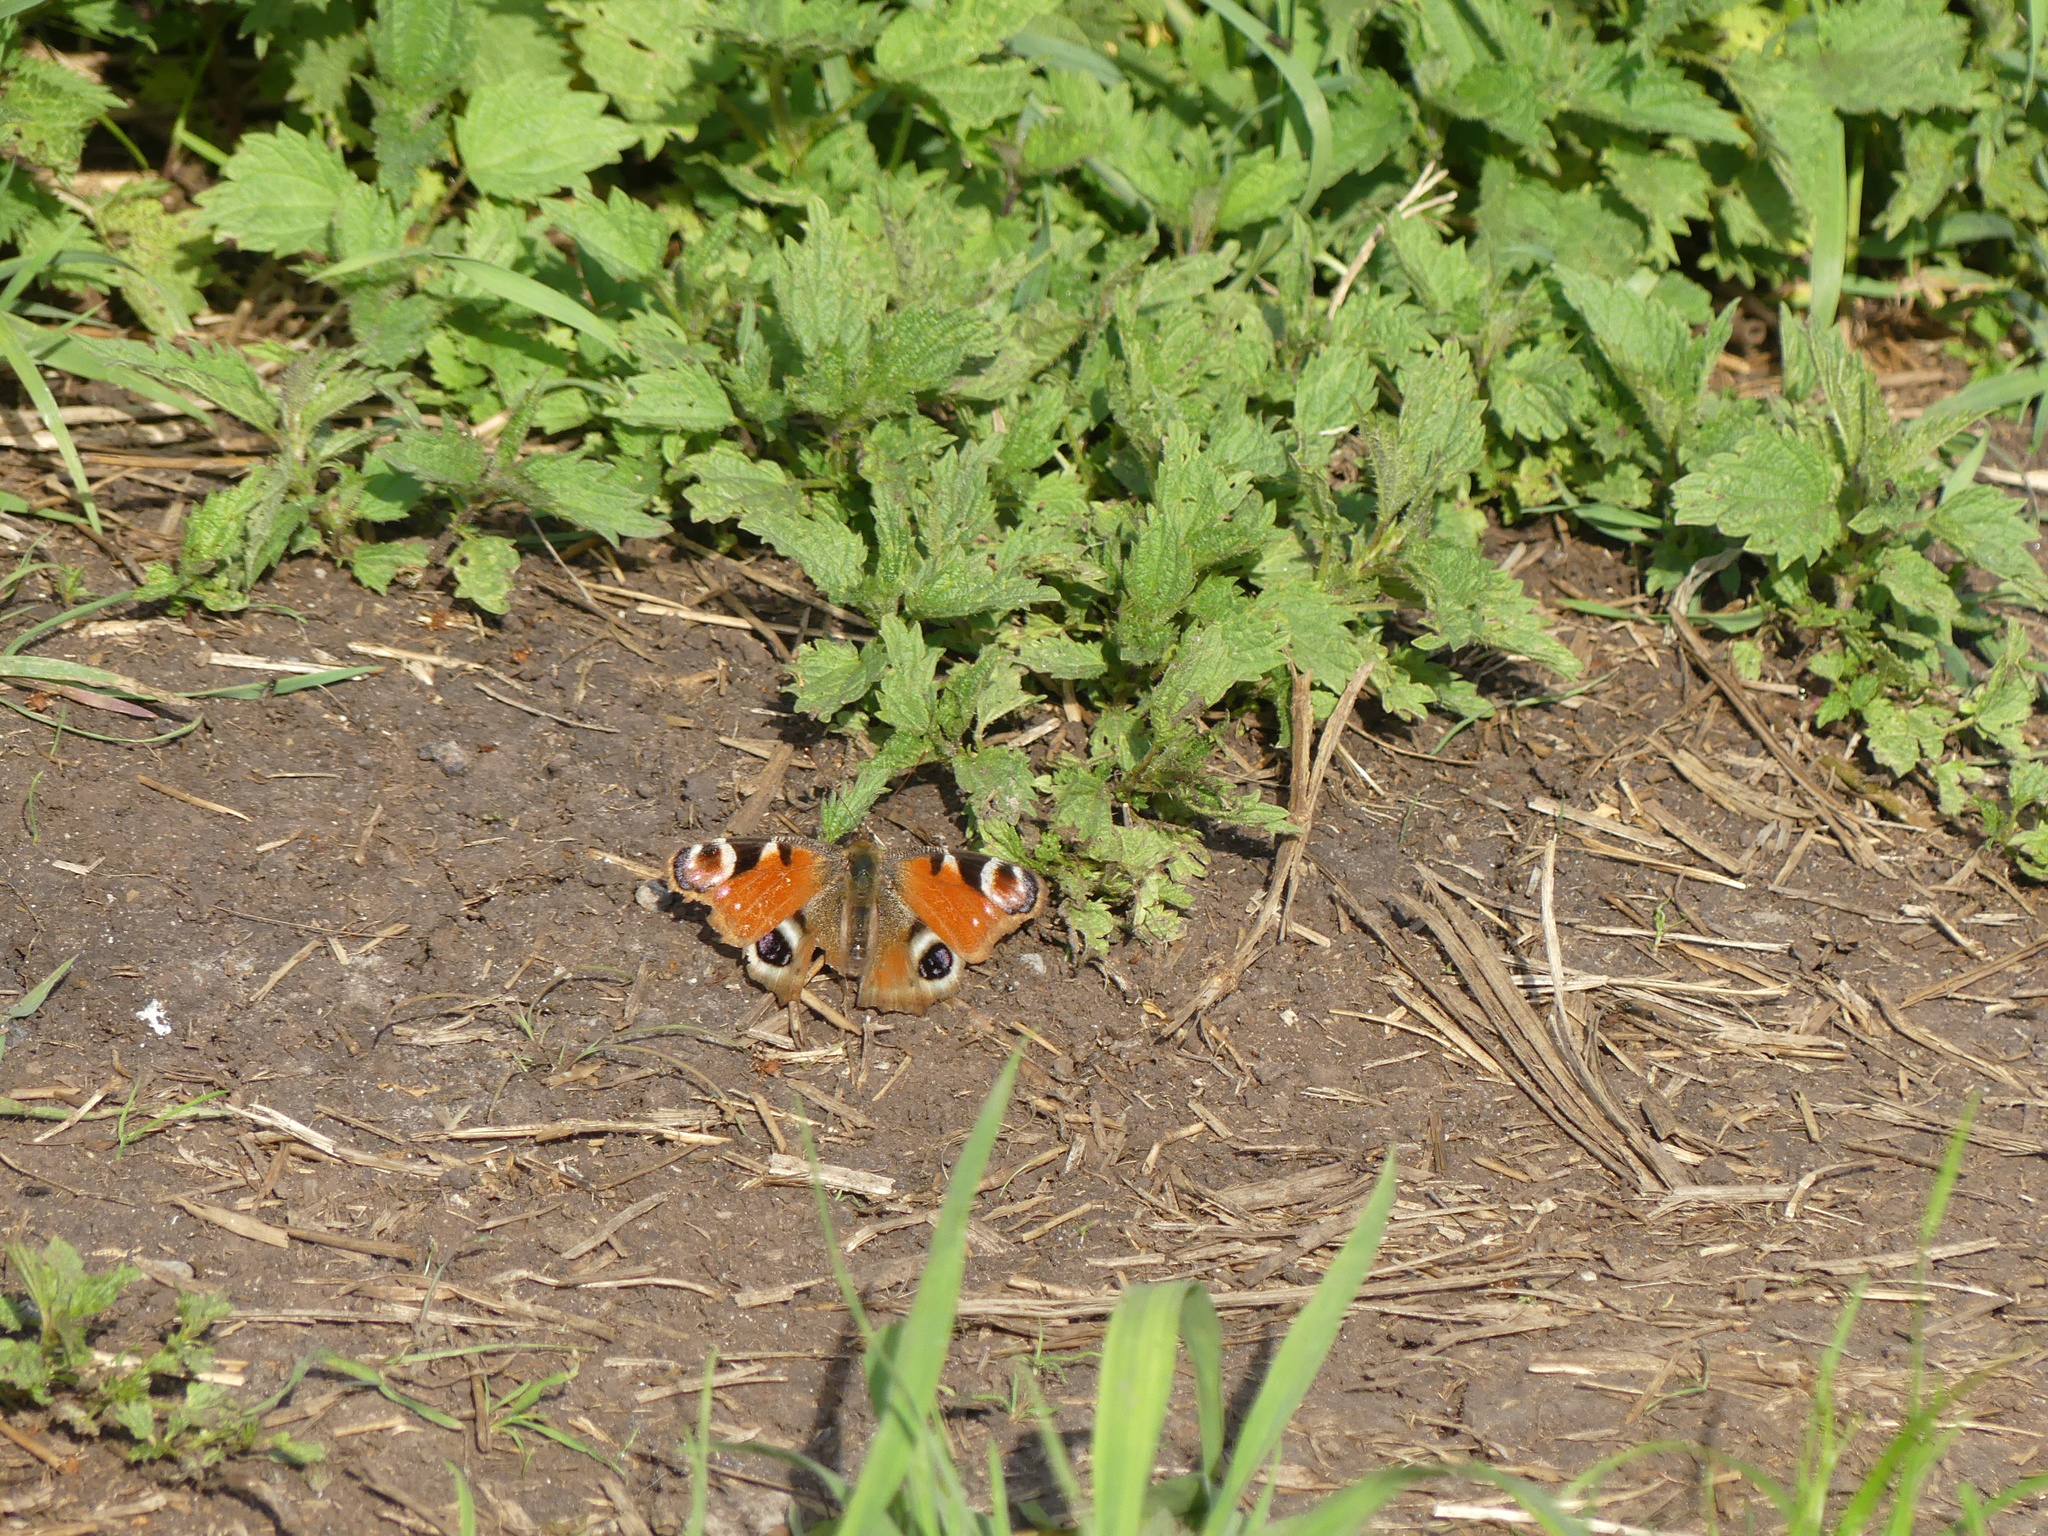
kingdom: Animalia
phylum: Arthropoda
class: Insecta
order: Lepidoptera
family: Nymphalidae
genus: Aglais
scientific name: Aglais io
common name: Peacock
